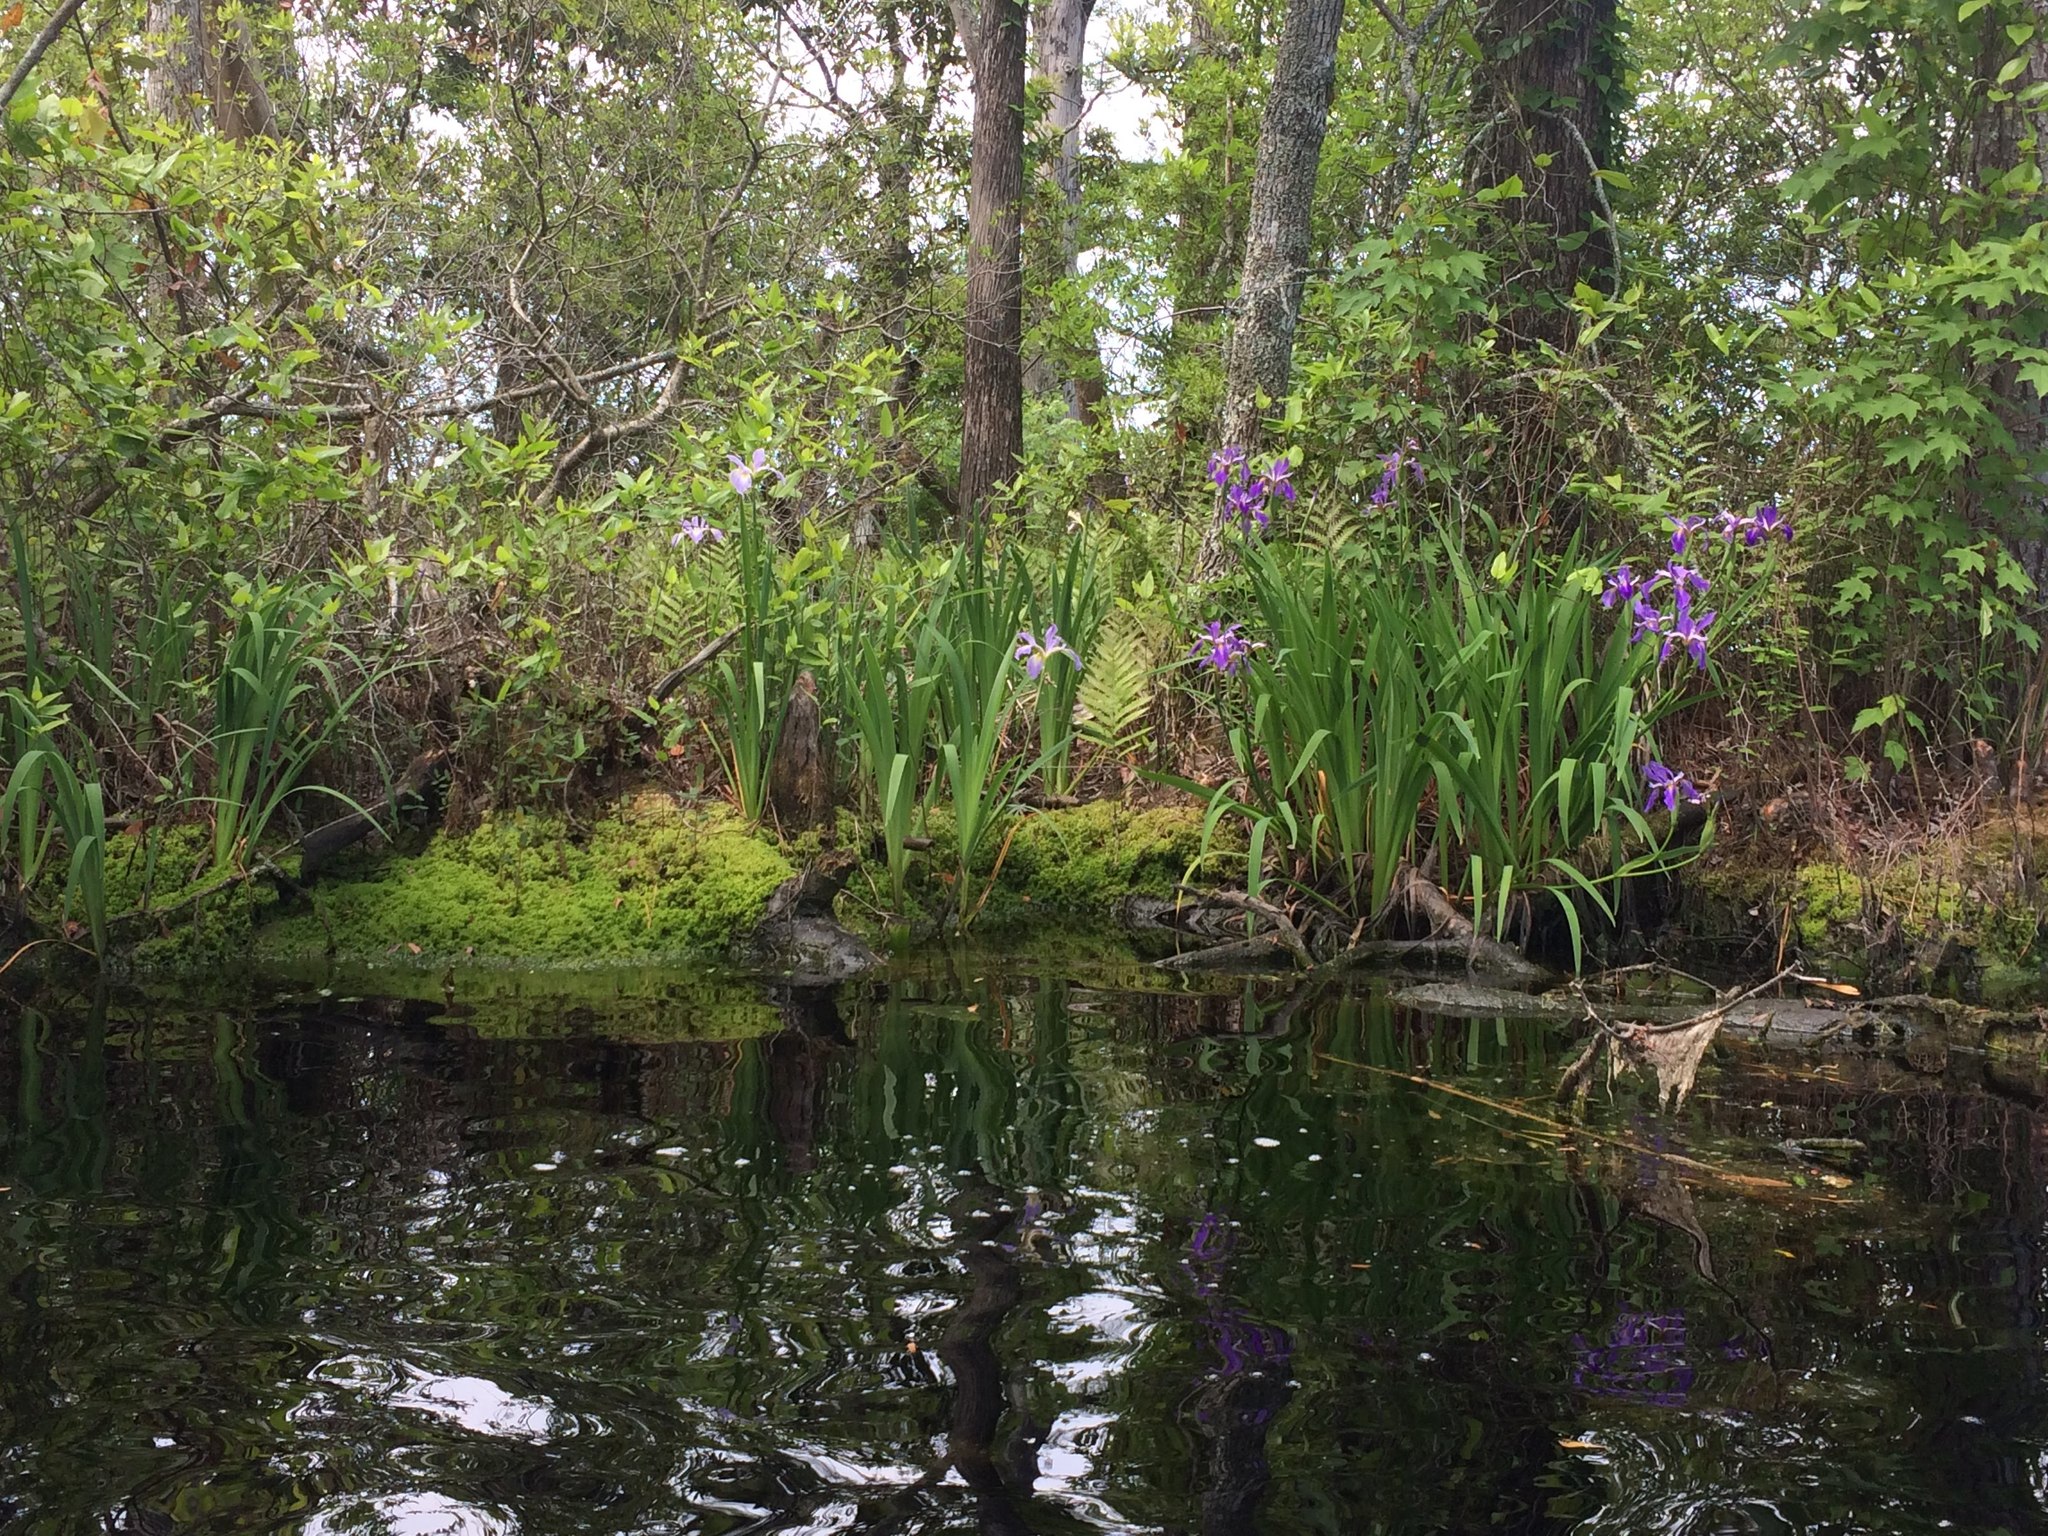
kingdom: Plantae
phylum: Tracheophyta
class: Liliopsida
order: Asparagales
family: Iridaceae
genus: Iris
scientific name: Iris virginica
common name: Southern blue flag
